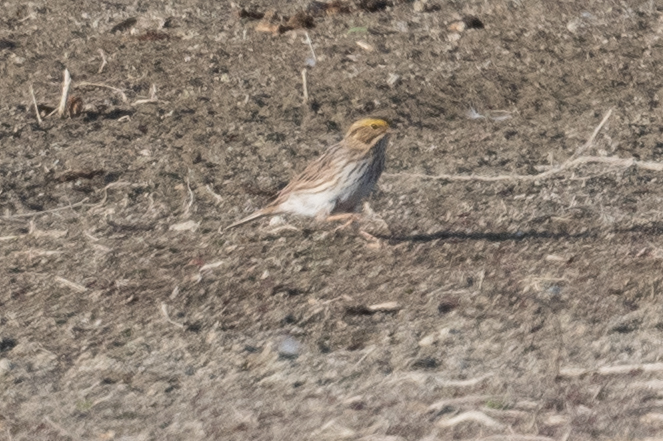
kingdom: Animalia
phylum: Chordata
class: Aves
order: Passeriformes
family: Passerellidae
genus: Passerculus
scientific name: Passerculus sandwichensis
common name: Savannah sparrow
